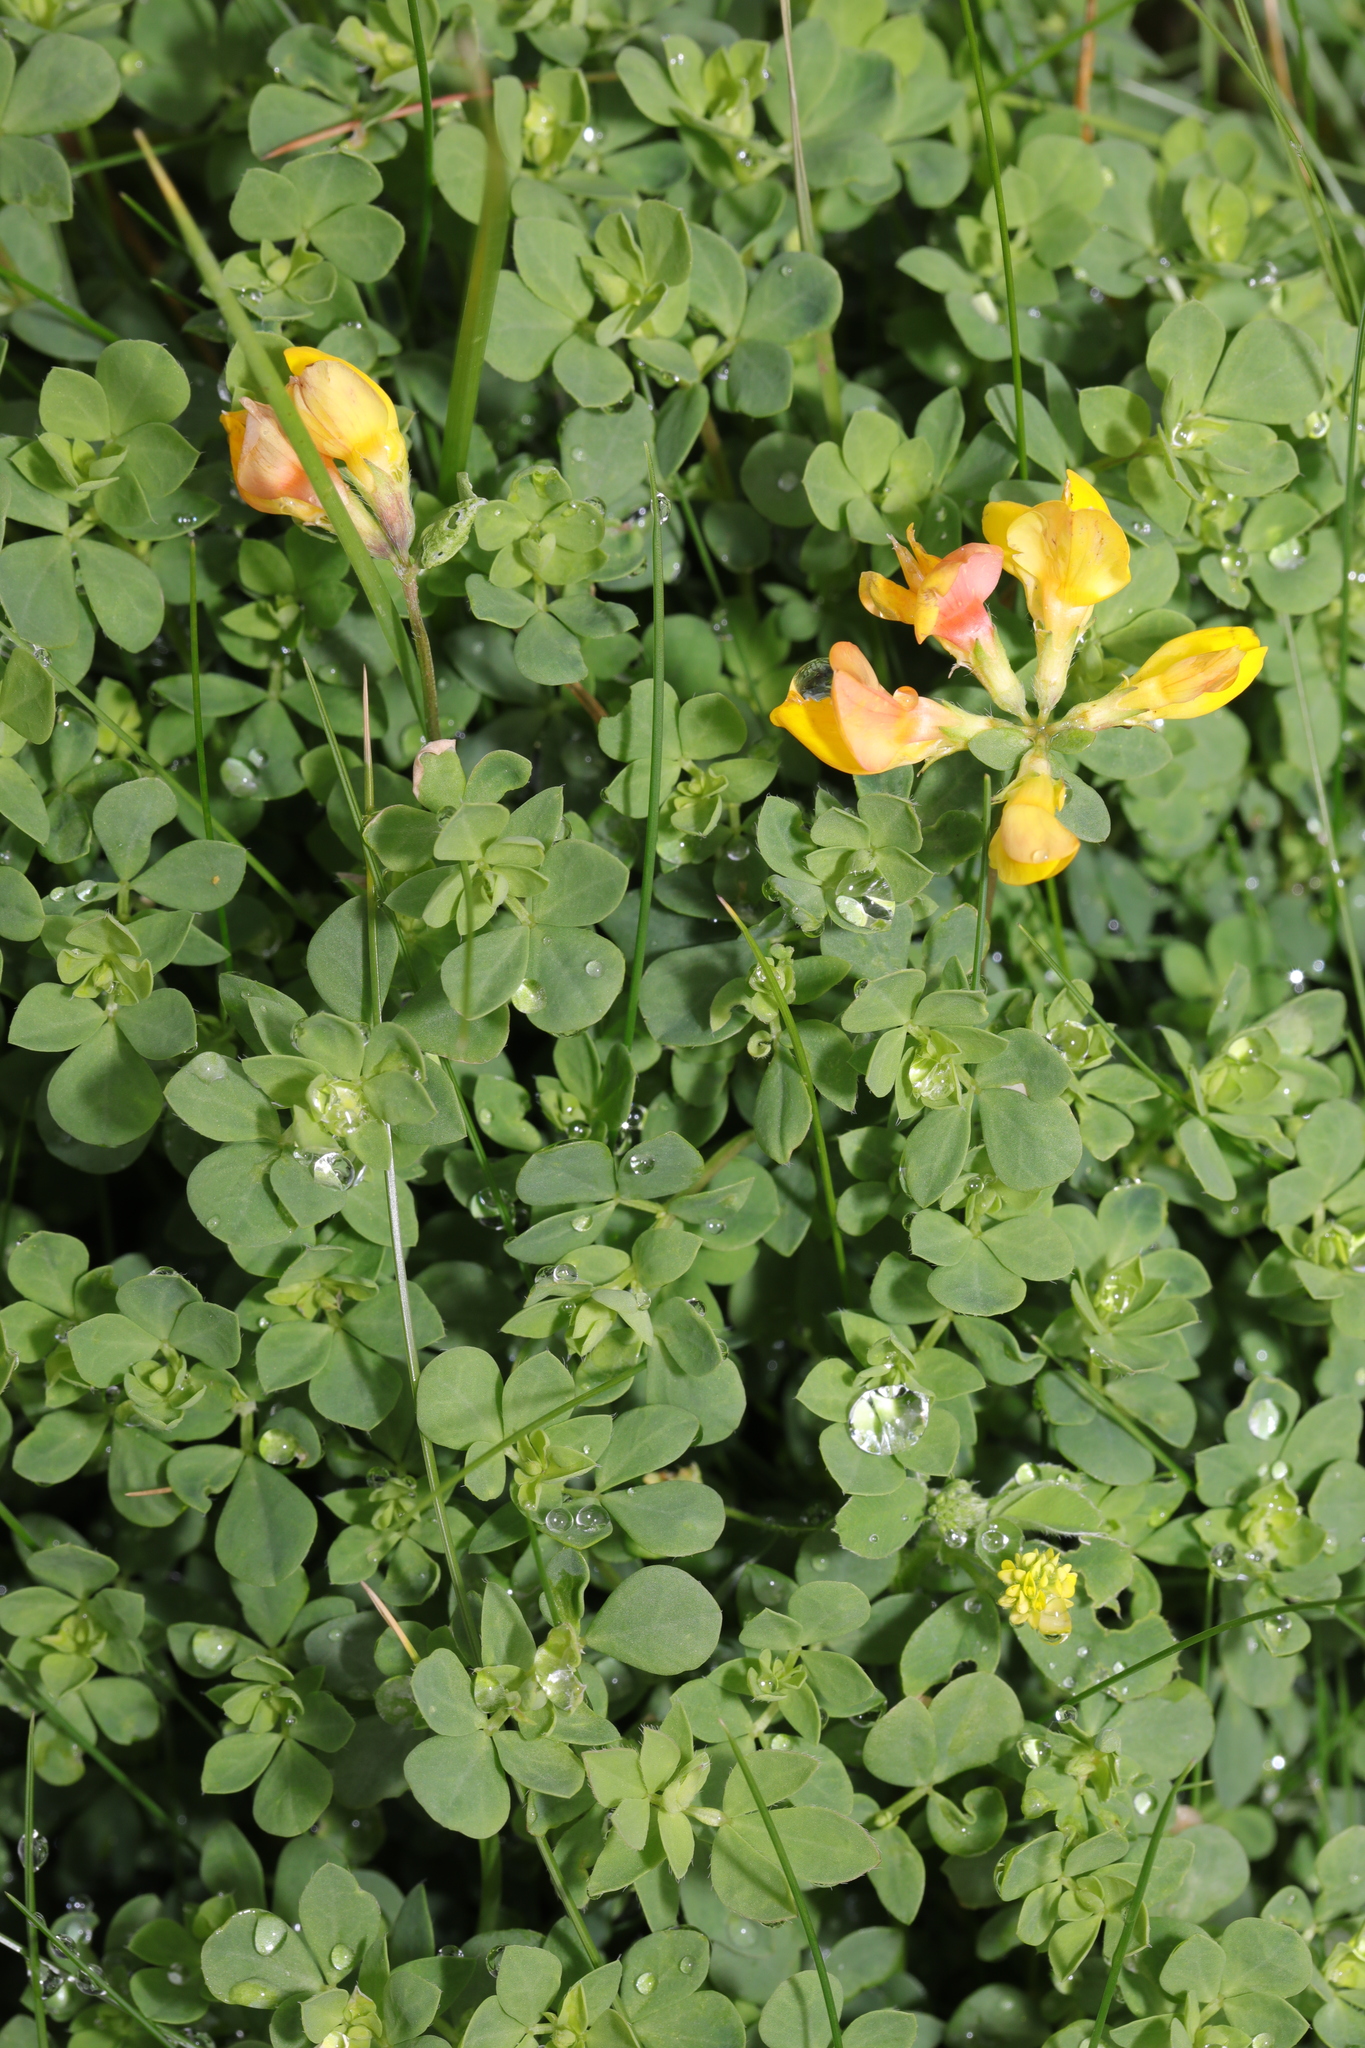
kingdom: Plantae
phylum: Tracheophyta
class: Magnoliopsida
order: Fabales
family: Fabaceae
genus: Lotus
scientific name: Lotus corniculatus
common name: Common bird's-foot-trefoil
